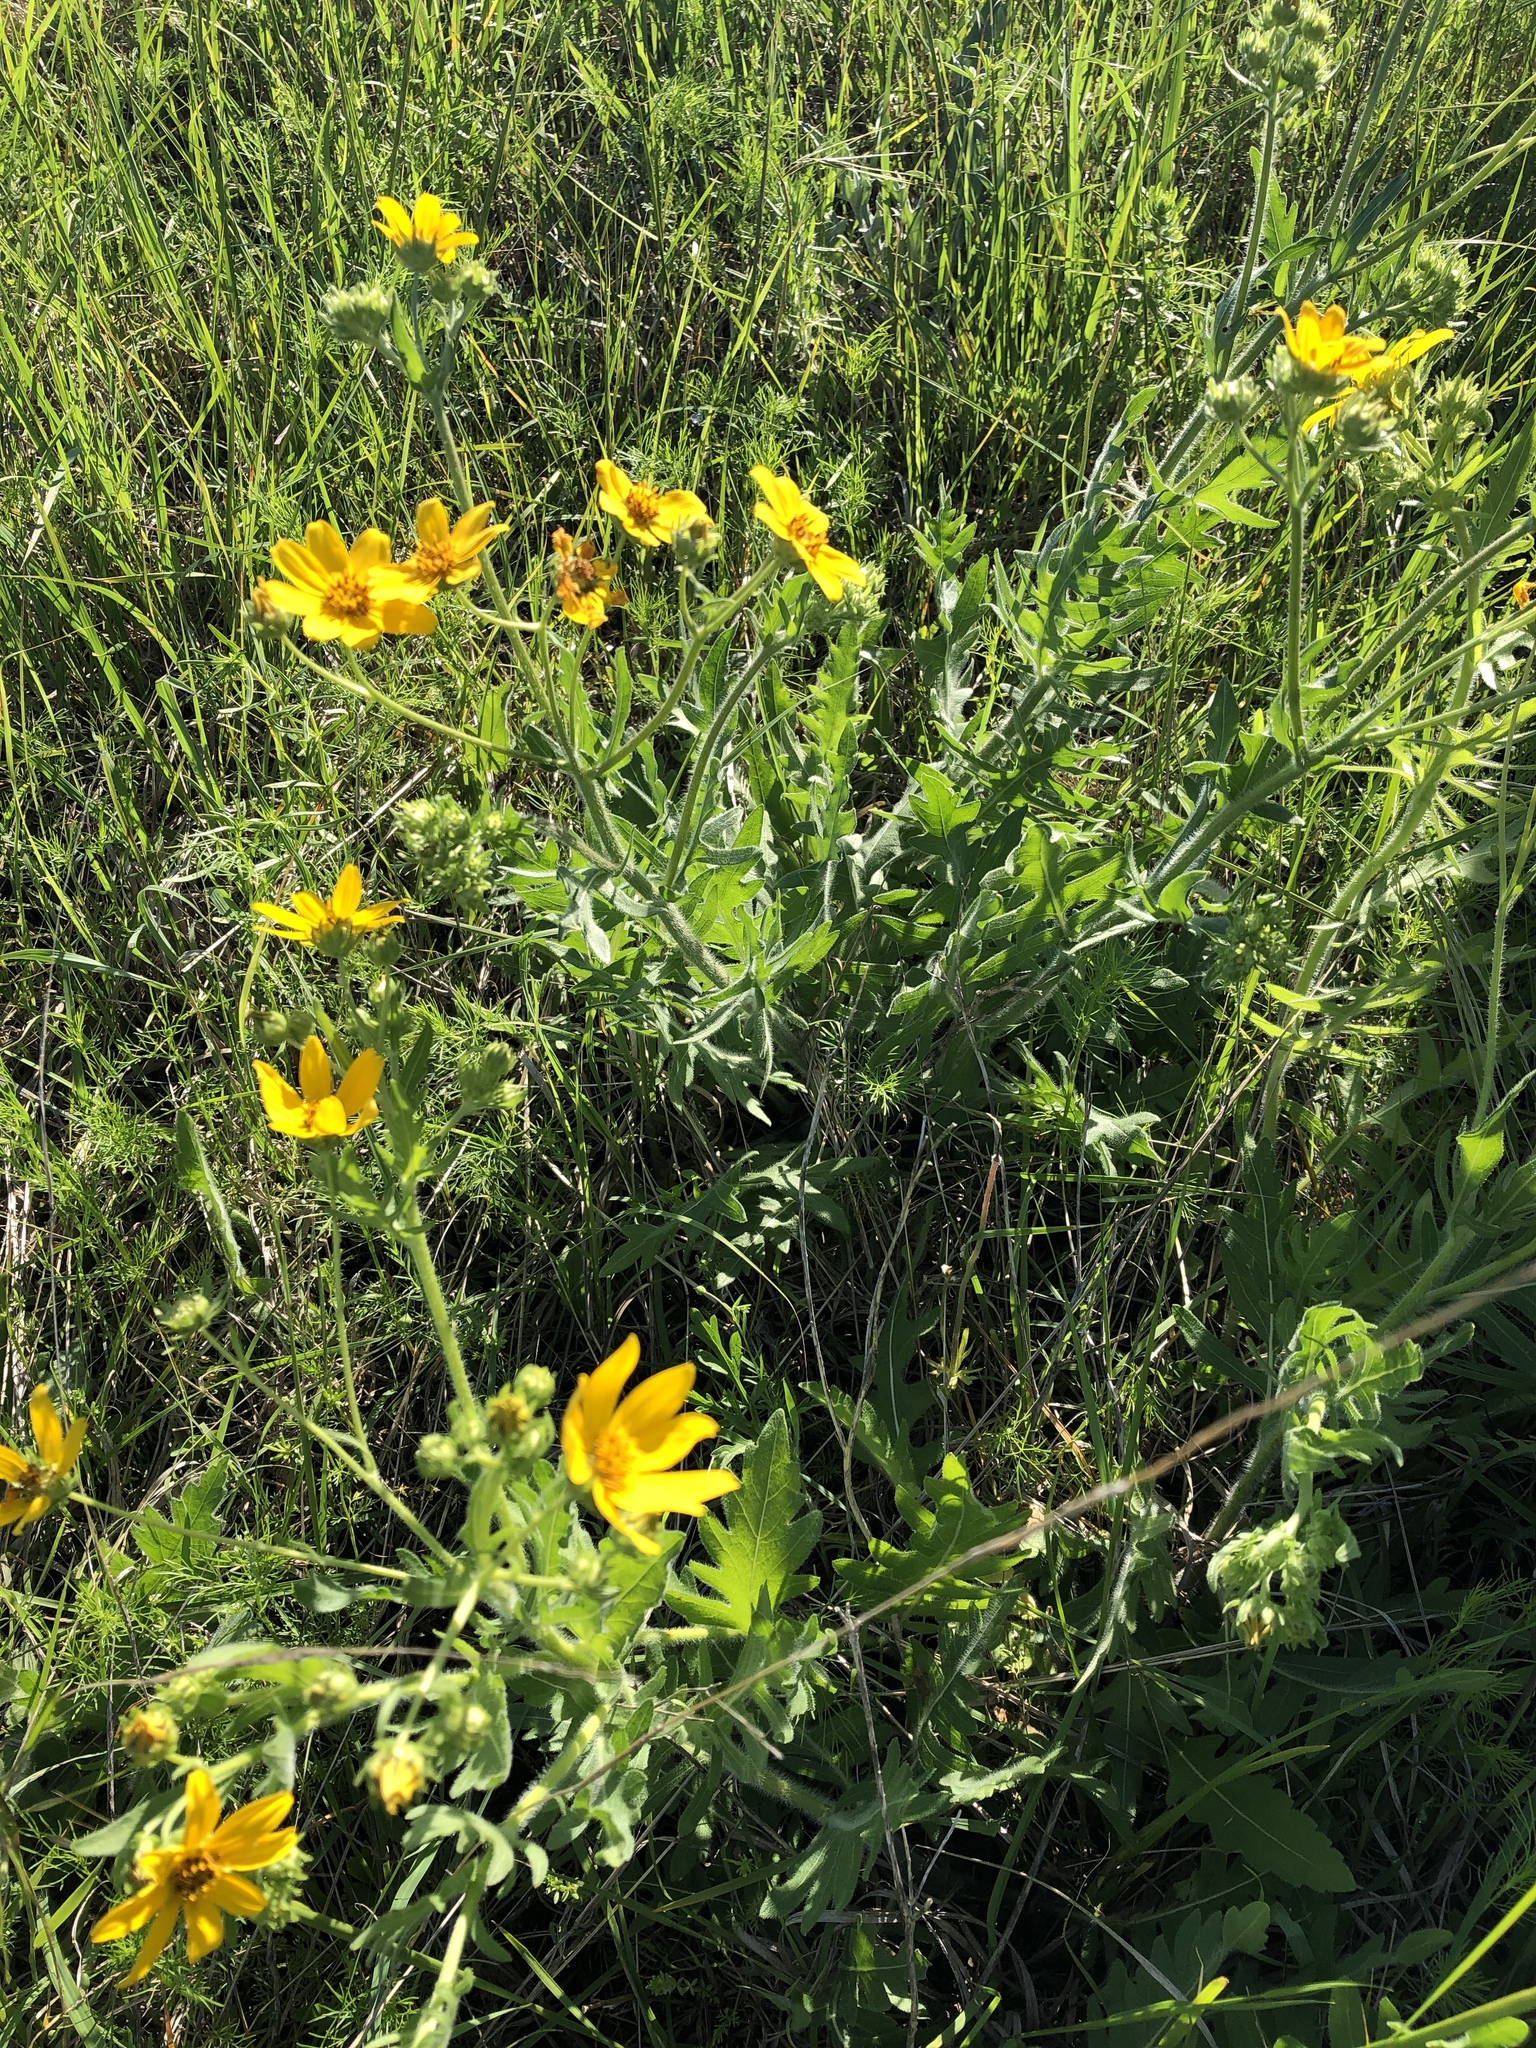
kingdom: Plantae
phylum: Tracheophyta
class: Magnoliopsida
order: Asterales
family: Asteraceae
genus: Engelmannia
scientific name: Engelmannia peristenia
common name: Engelmann's daisy
